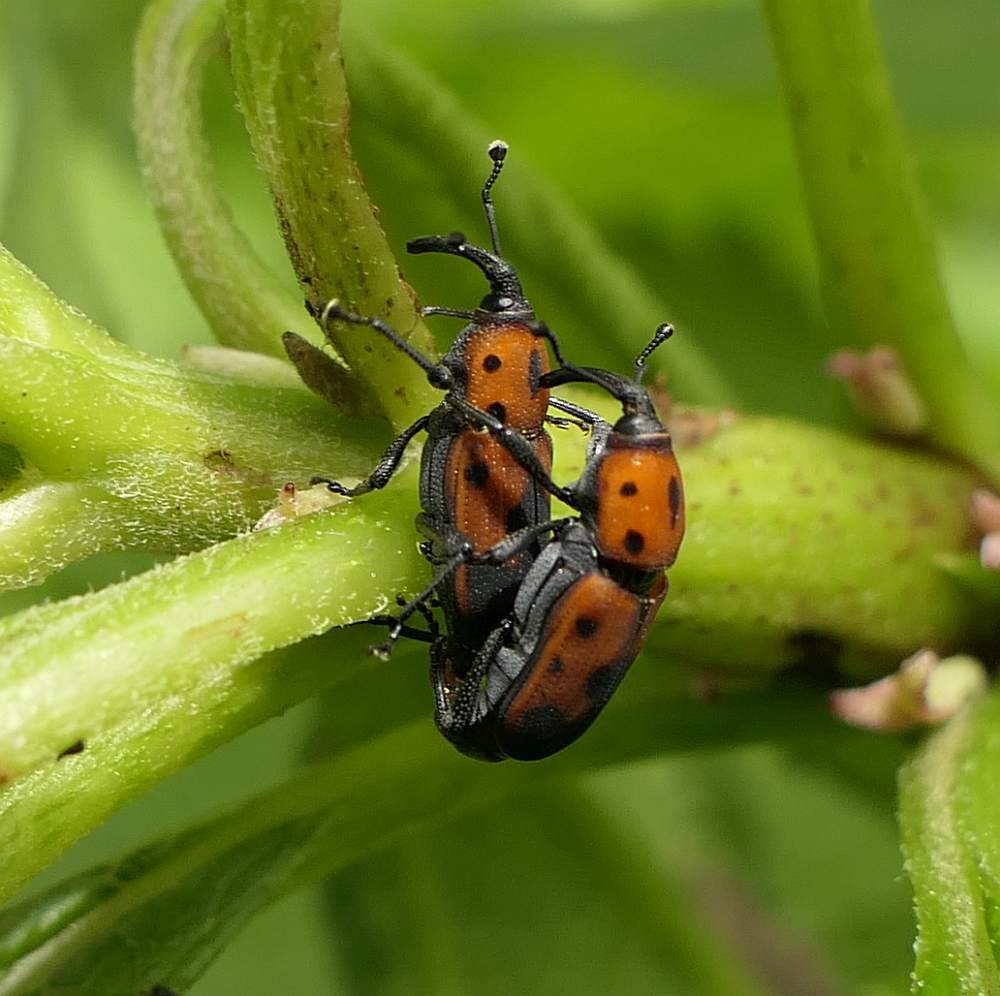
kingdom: Animalia
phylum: Arthropoda
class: Insecta
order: Coleoptera
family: Dryophthoridae
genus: Rhodobaenus
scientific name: Rhodobaenus quinquepunctatus
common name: Cocklebur weevil
